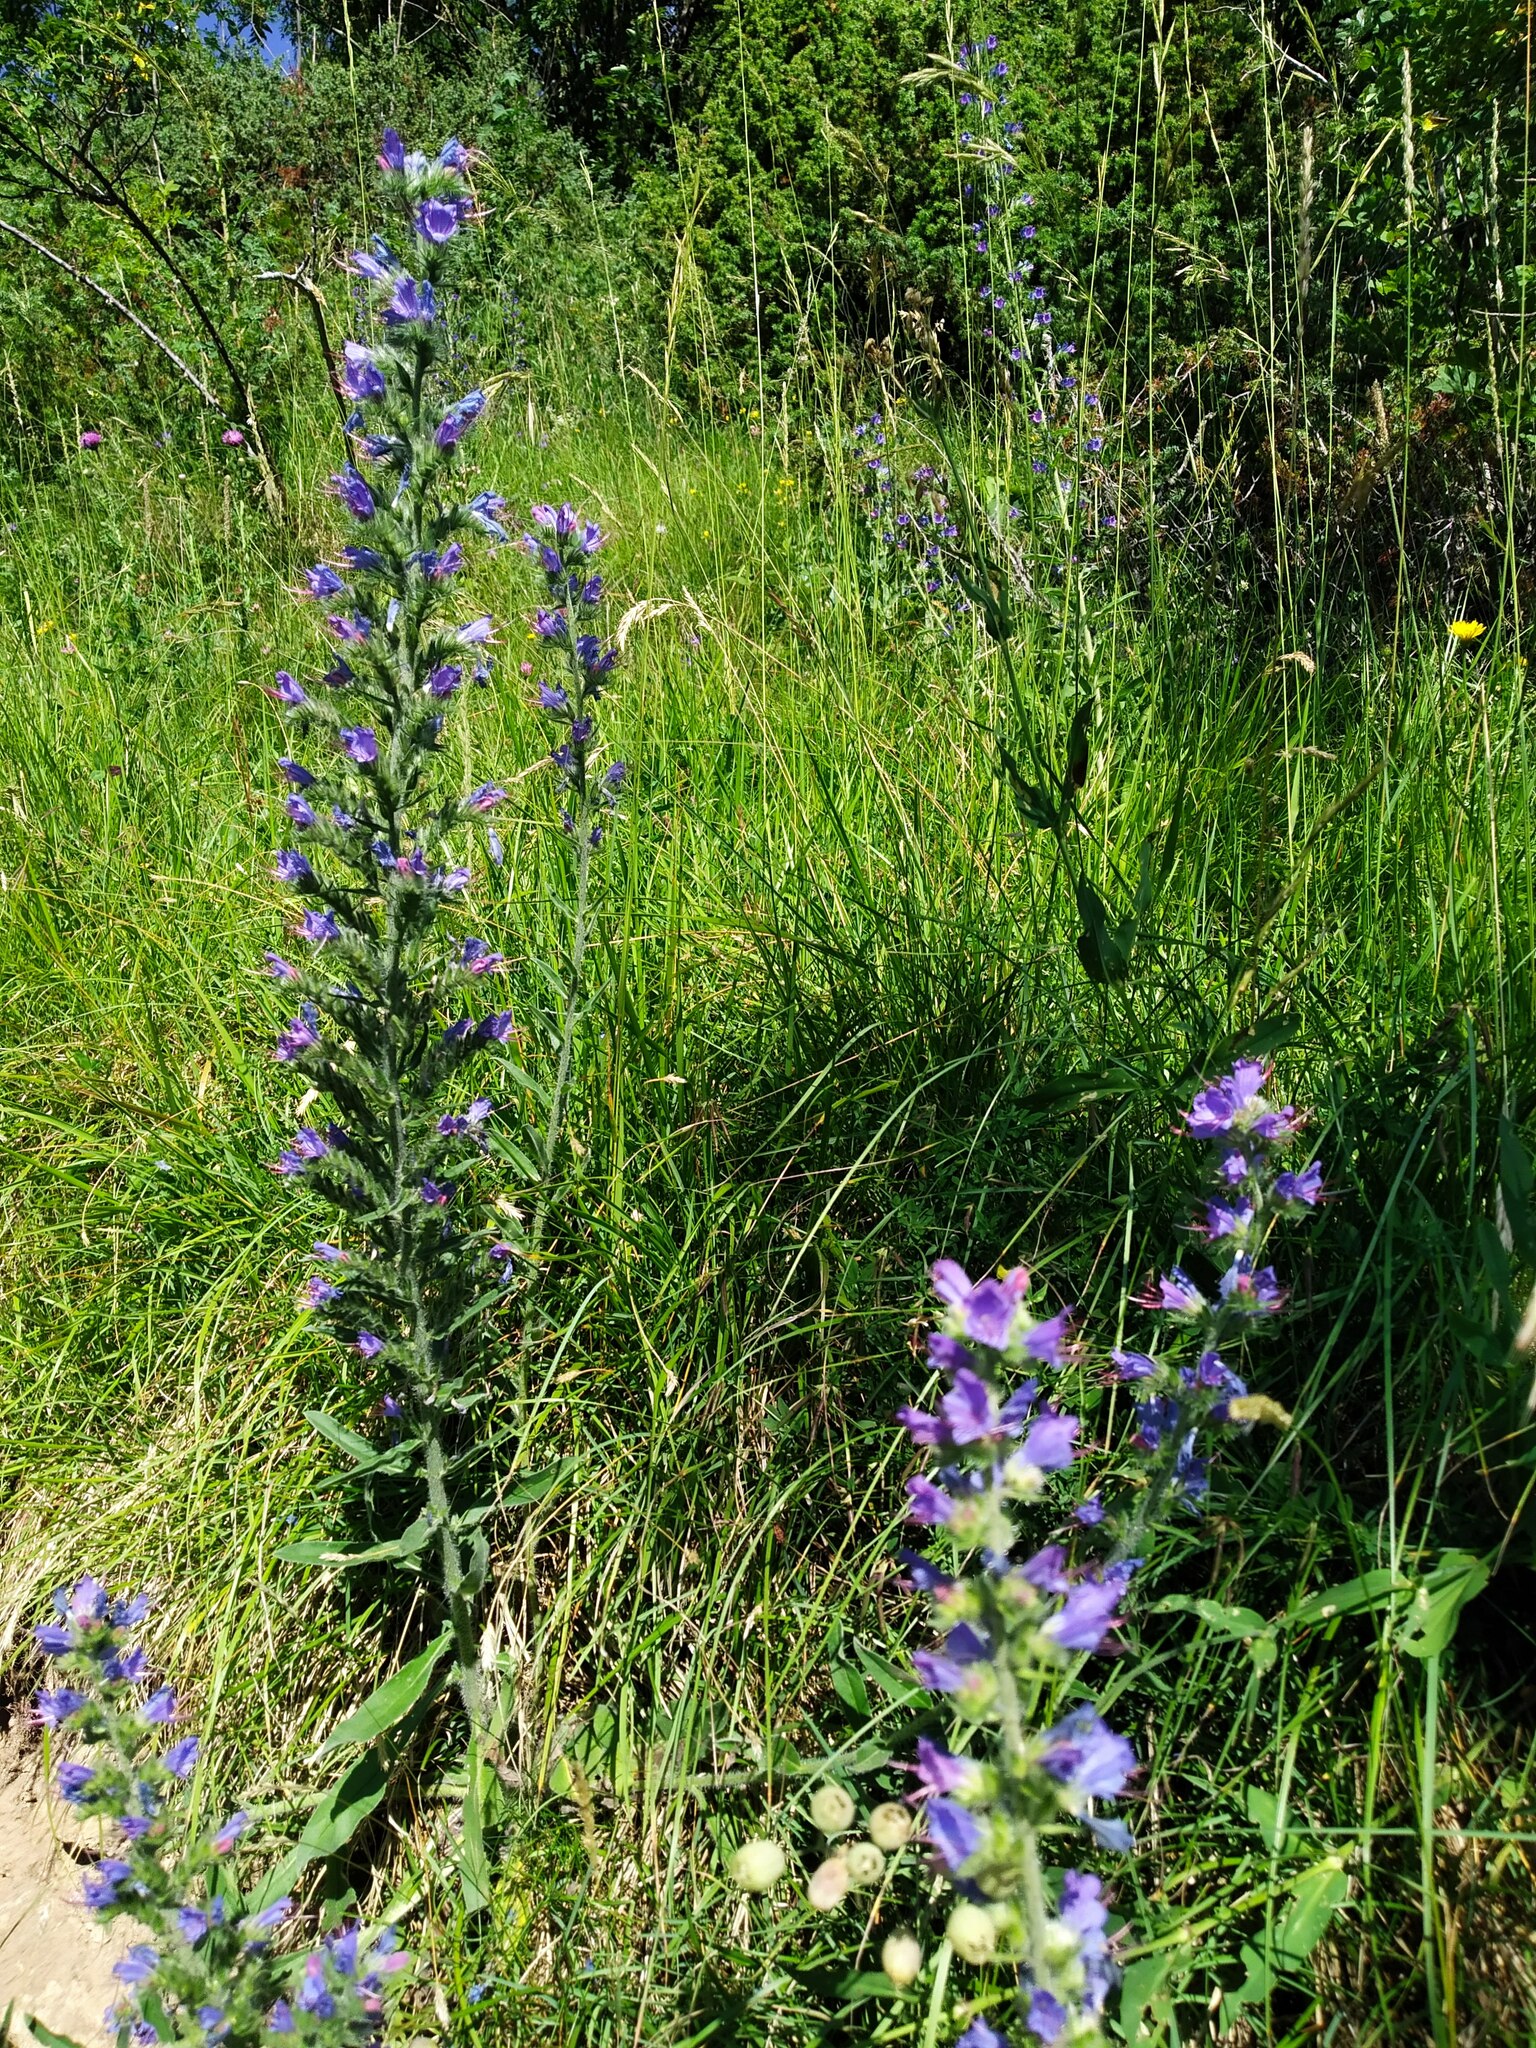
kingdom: Plantae
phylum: Tracheophyta
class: Magnoliopsida
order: Boraginales
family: Boraginaceae
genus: Echium
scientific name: Echium vulgare
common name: Common viper's bugloss
